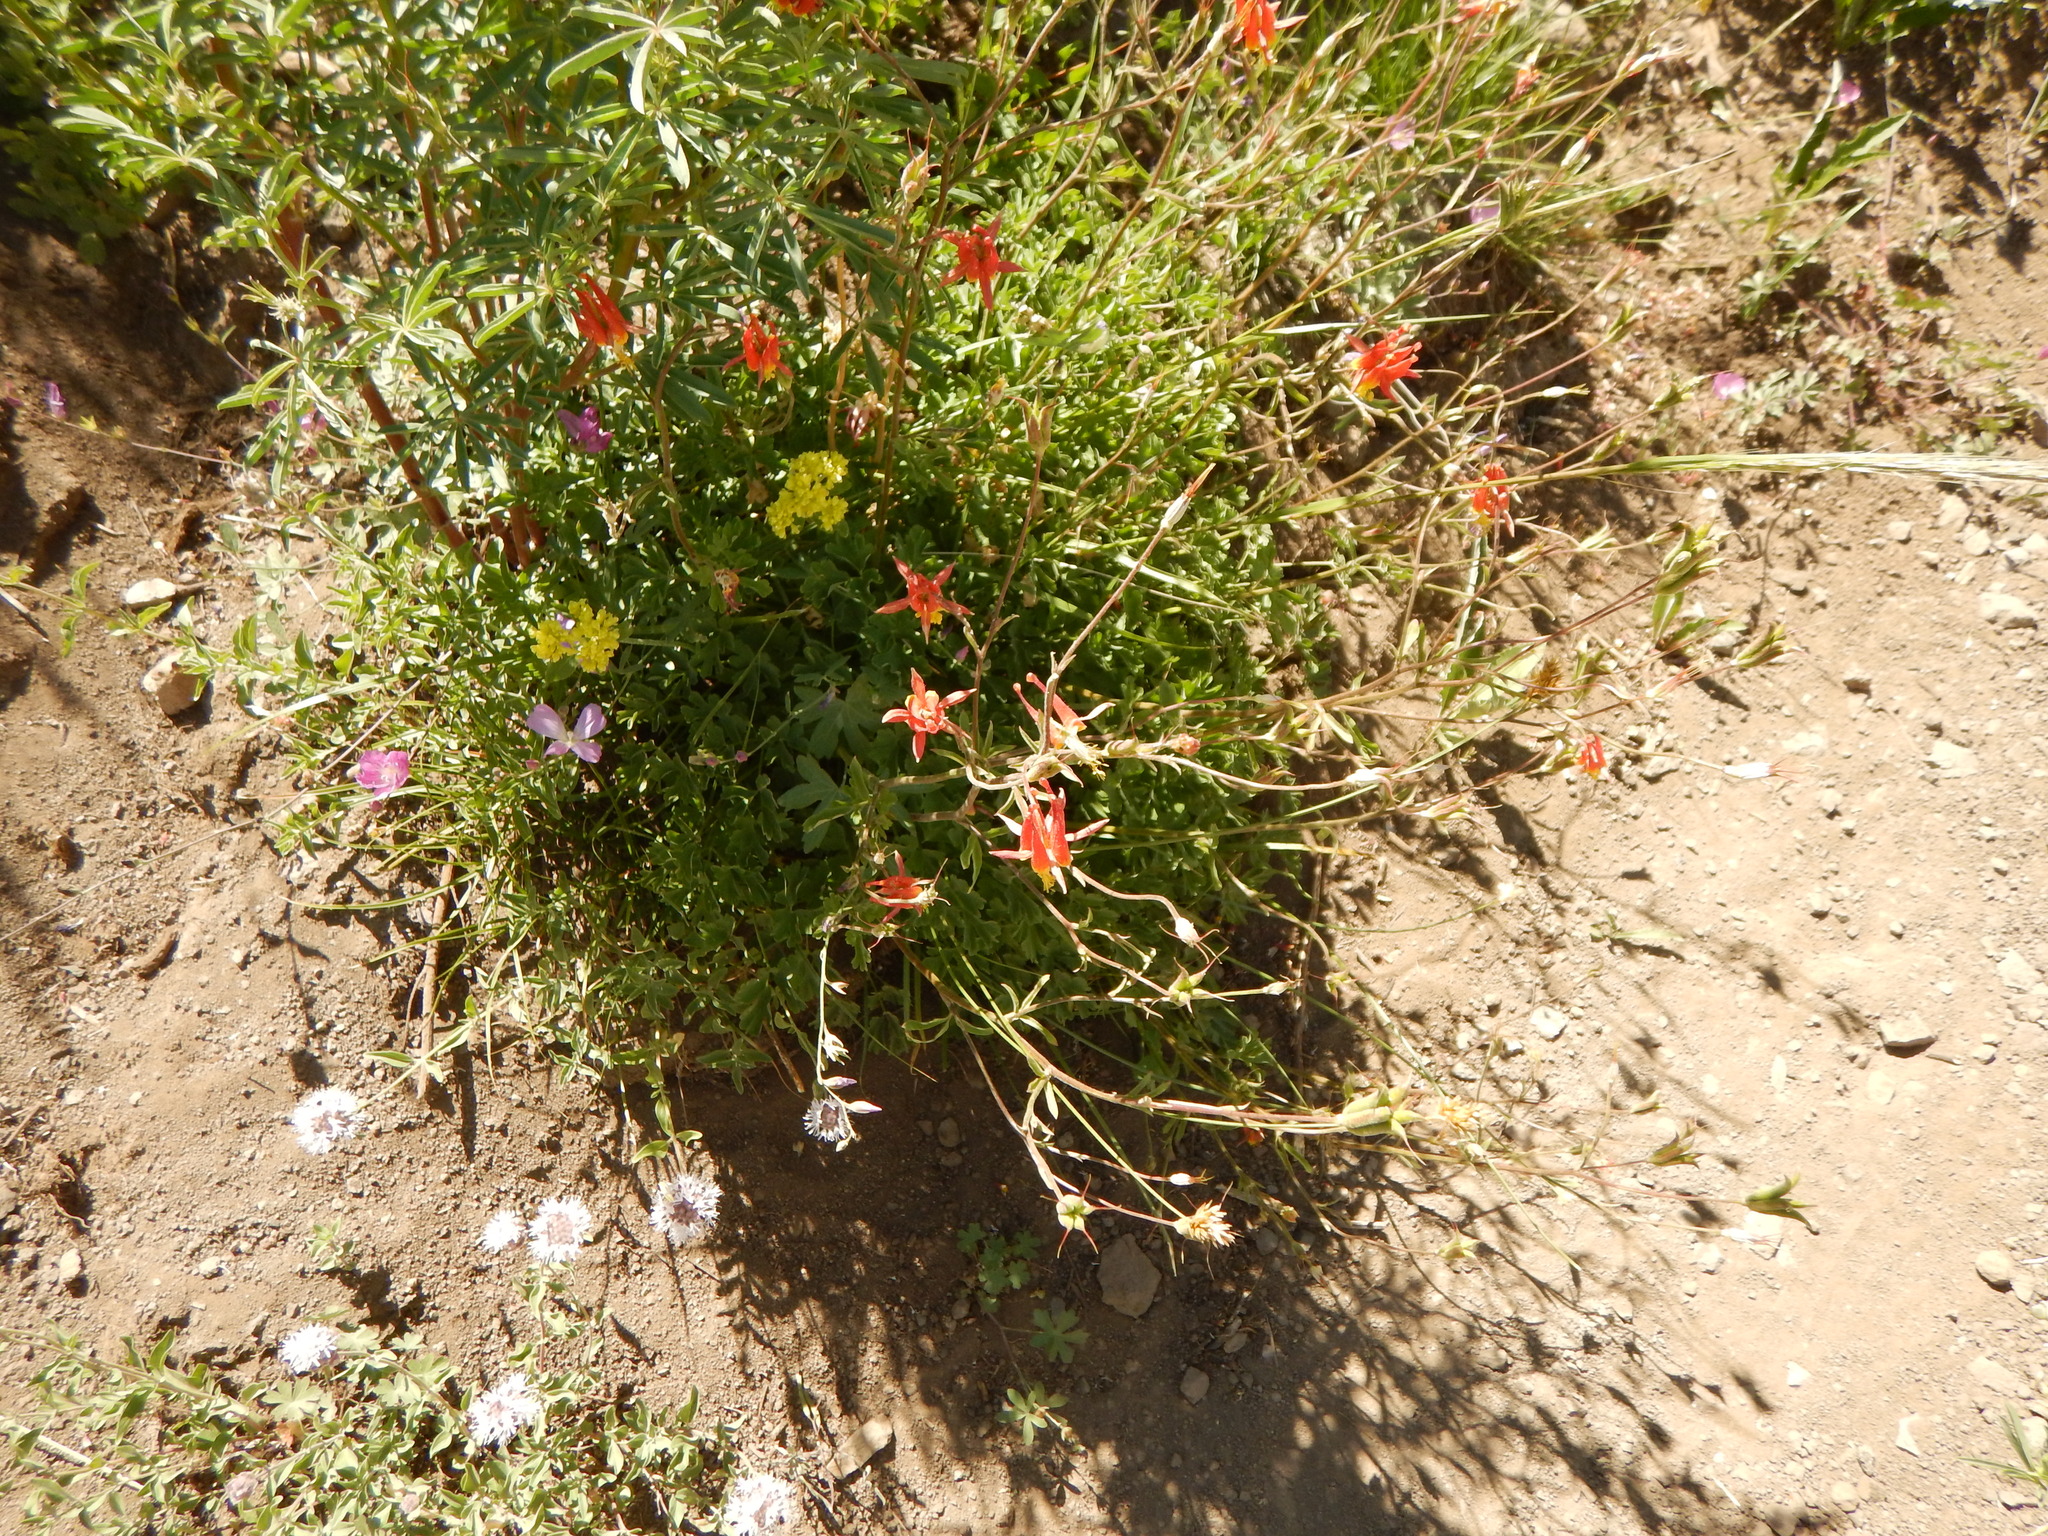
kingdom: Plantae
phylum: Tracheophyta
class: Magnoliopsida
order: Ranunculales
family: Ranunculaceae
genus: Aquilegia
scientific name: Aquilegia formosa
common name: Sitka columbine
